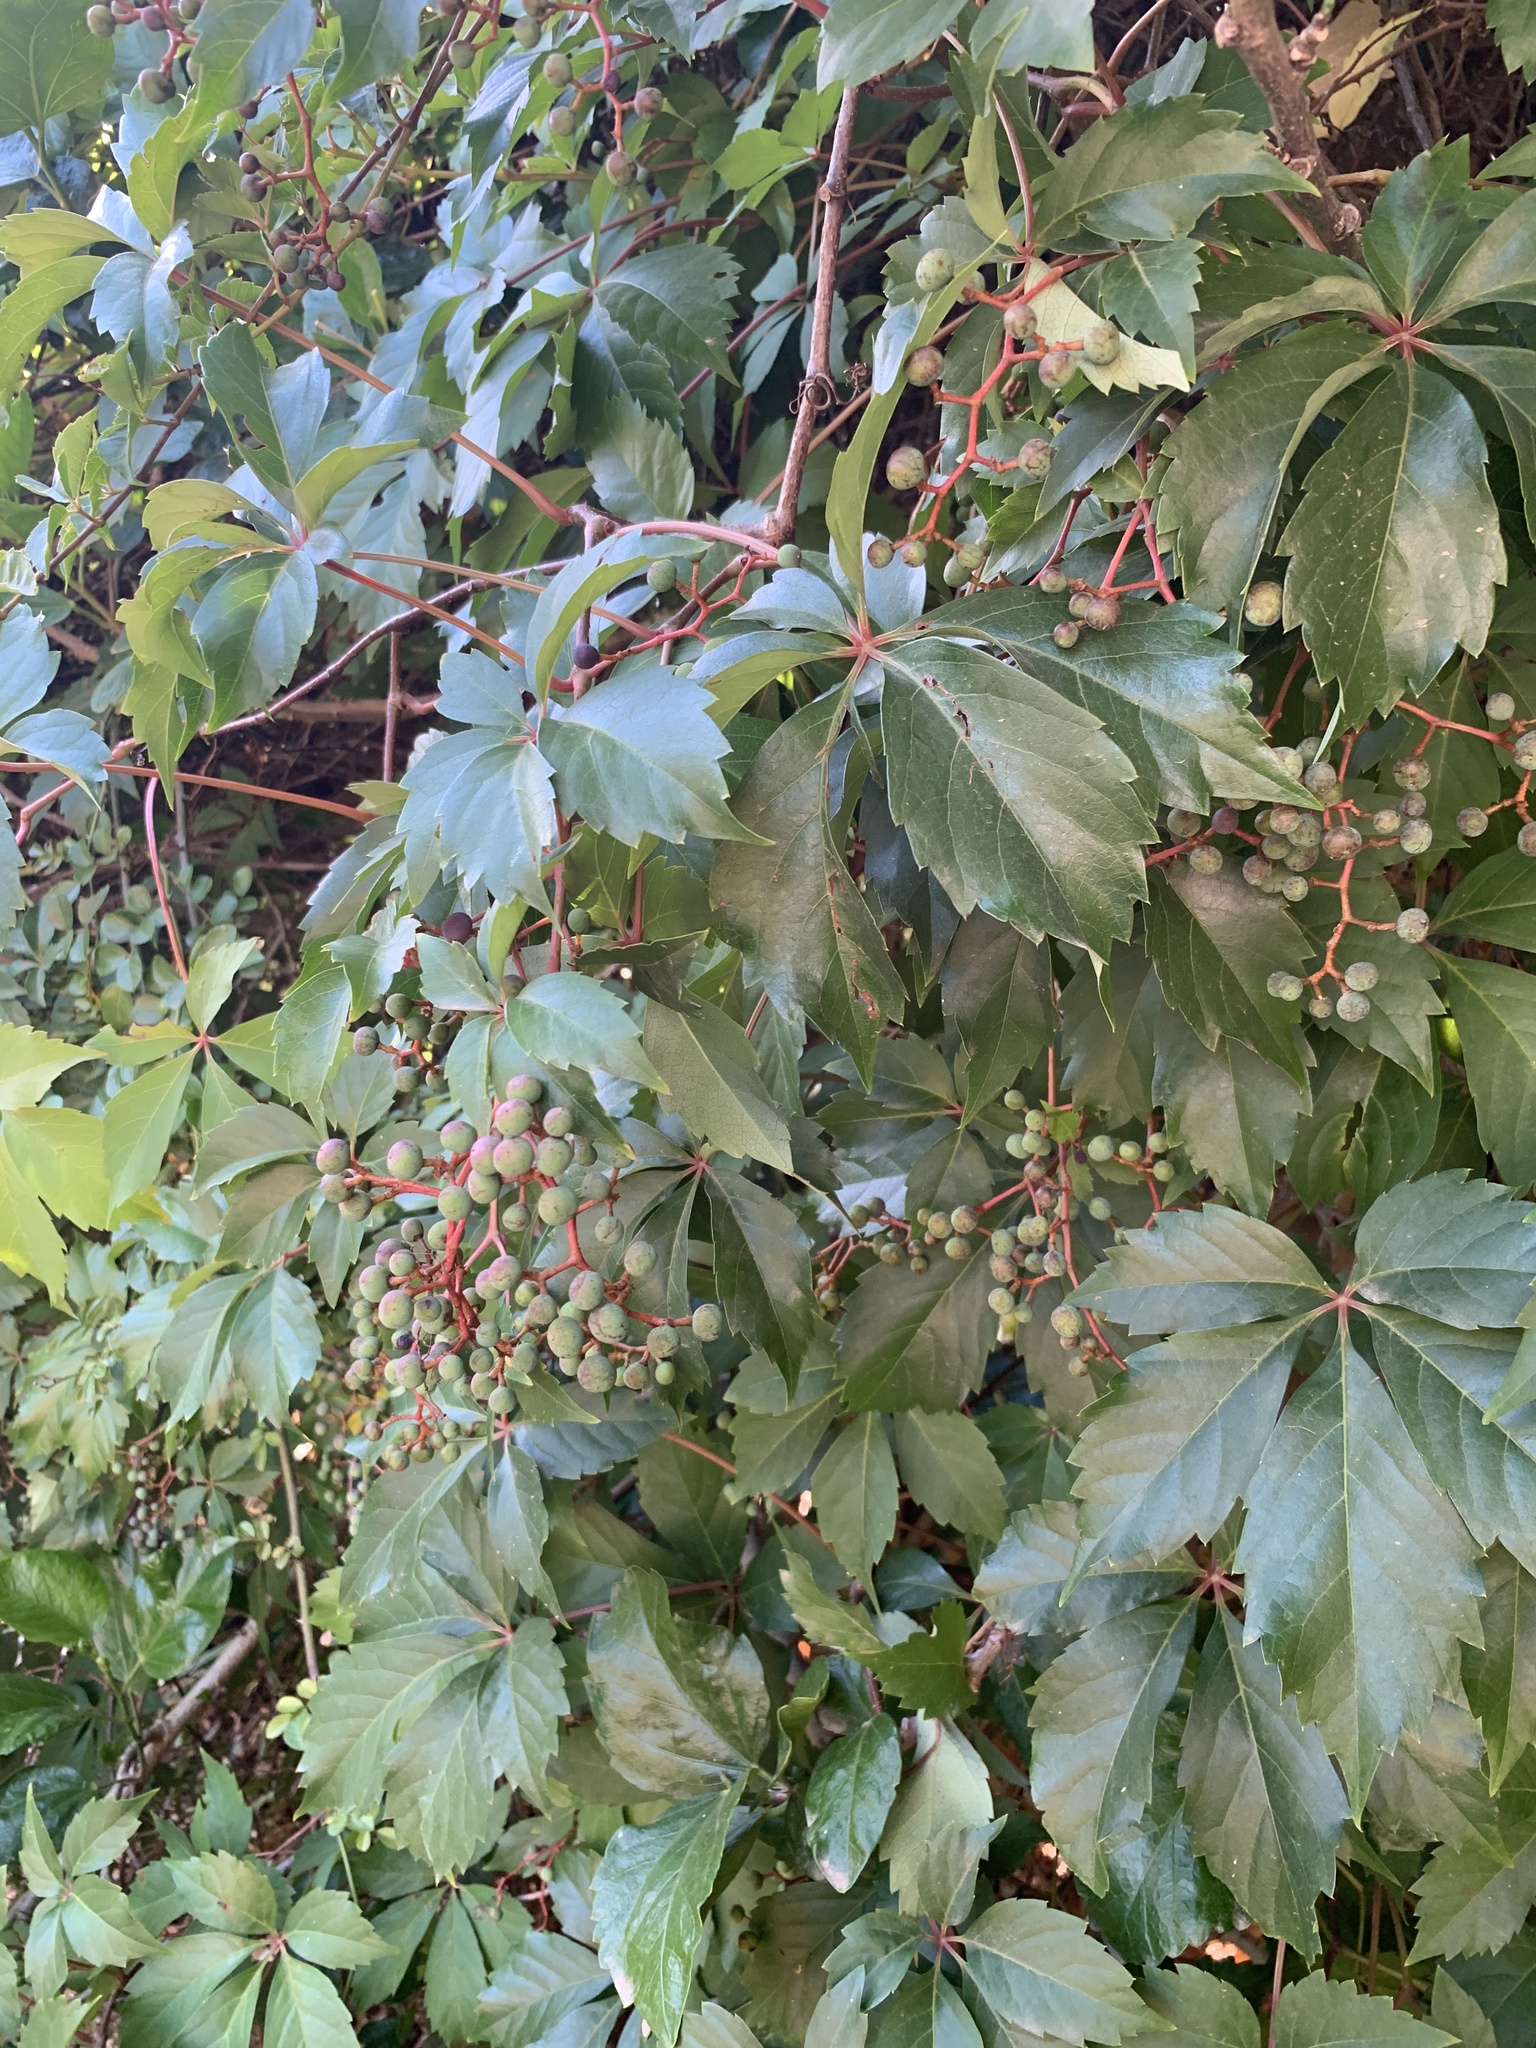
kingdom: Plantae
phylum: Tracheophyta
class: Magnoliopsida
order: Vitales
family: Vitaceae
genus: Parthenocissus
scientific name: Parthenocissus quinquefolia
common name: Virginia-creeper
